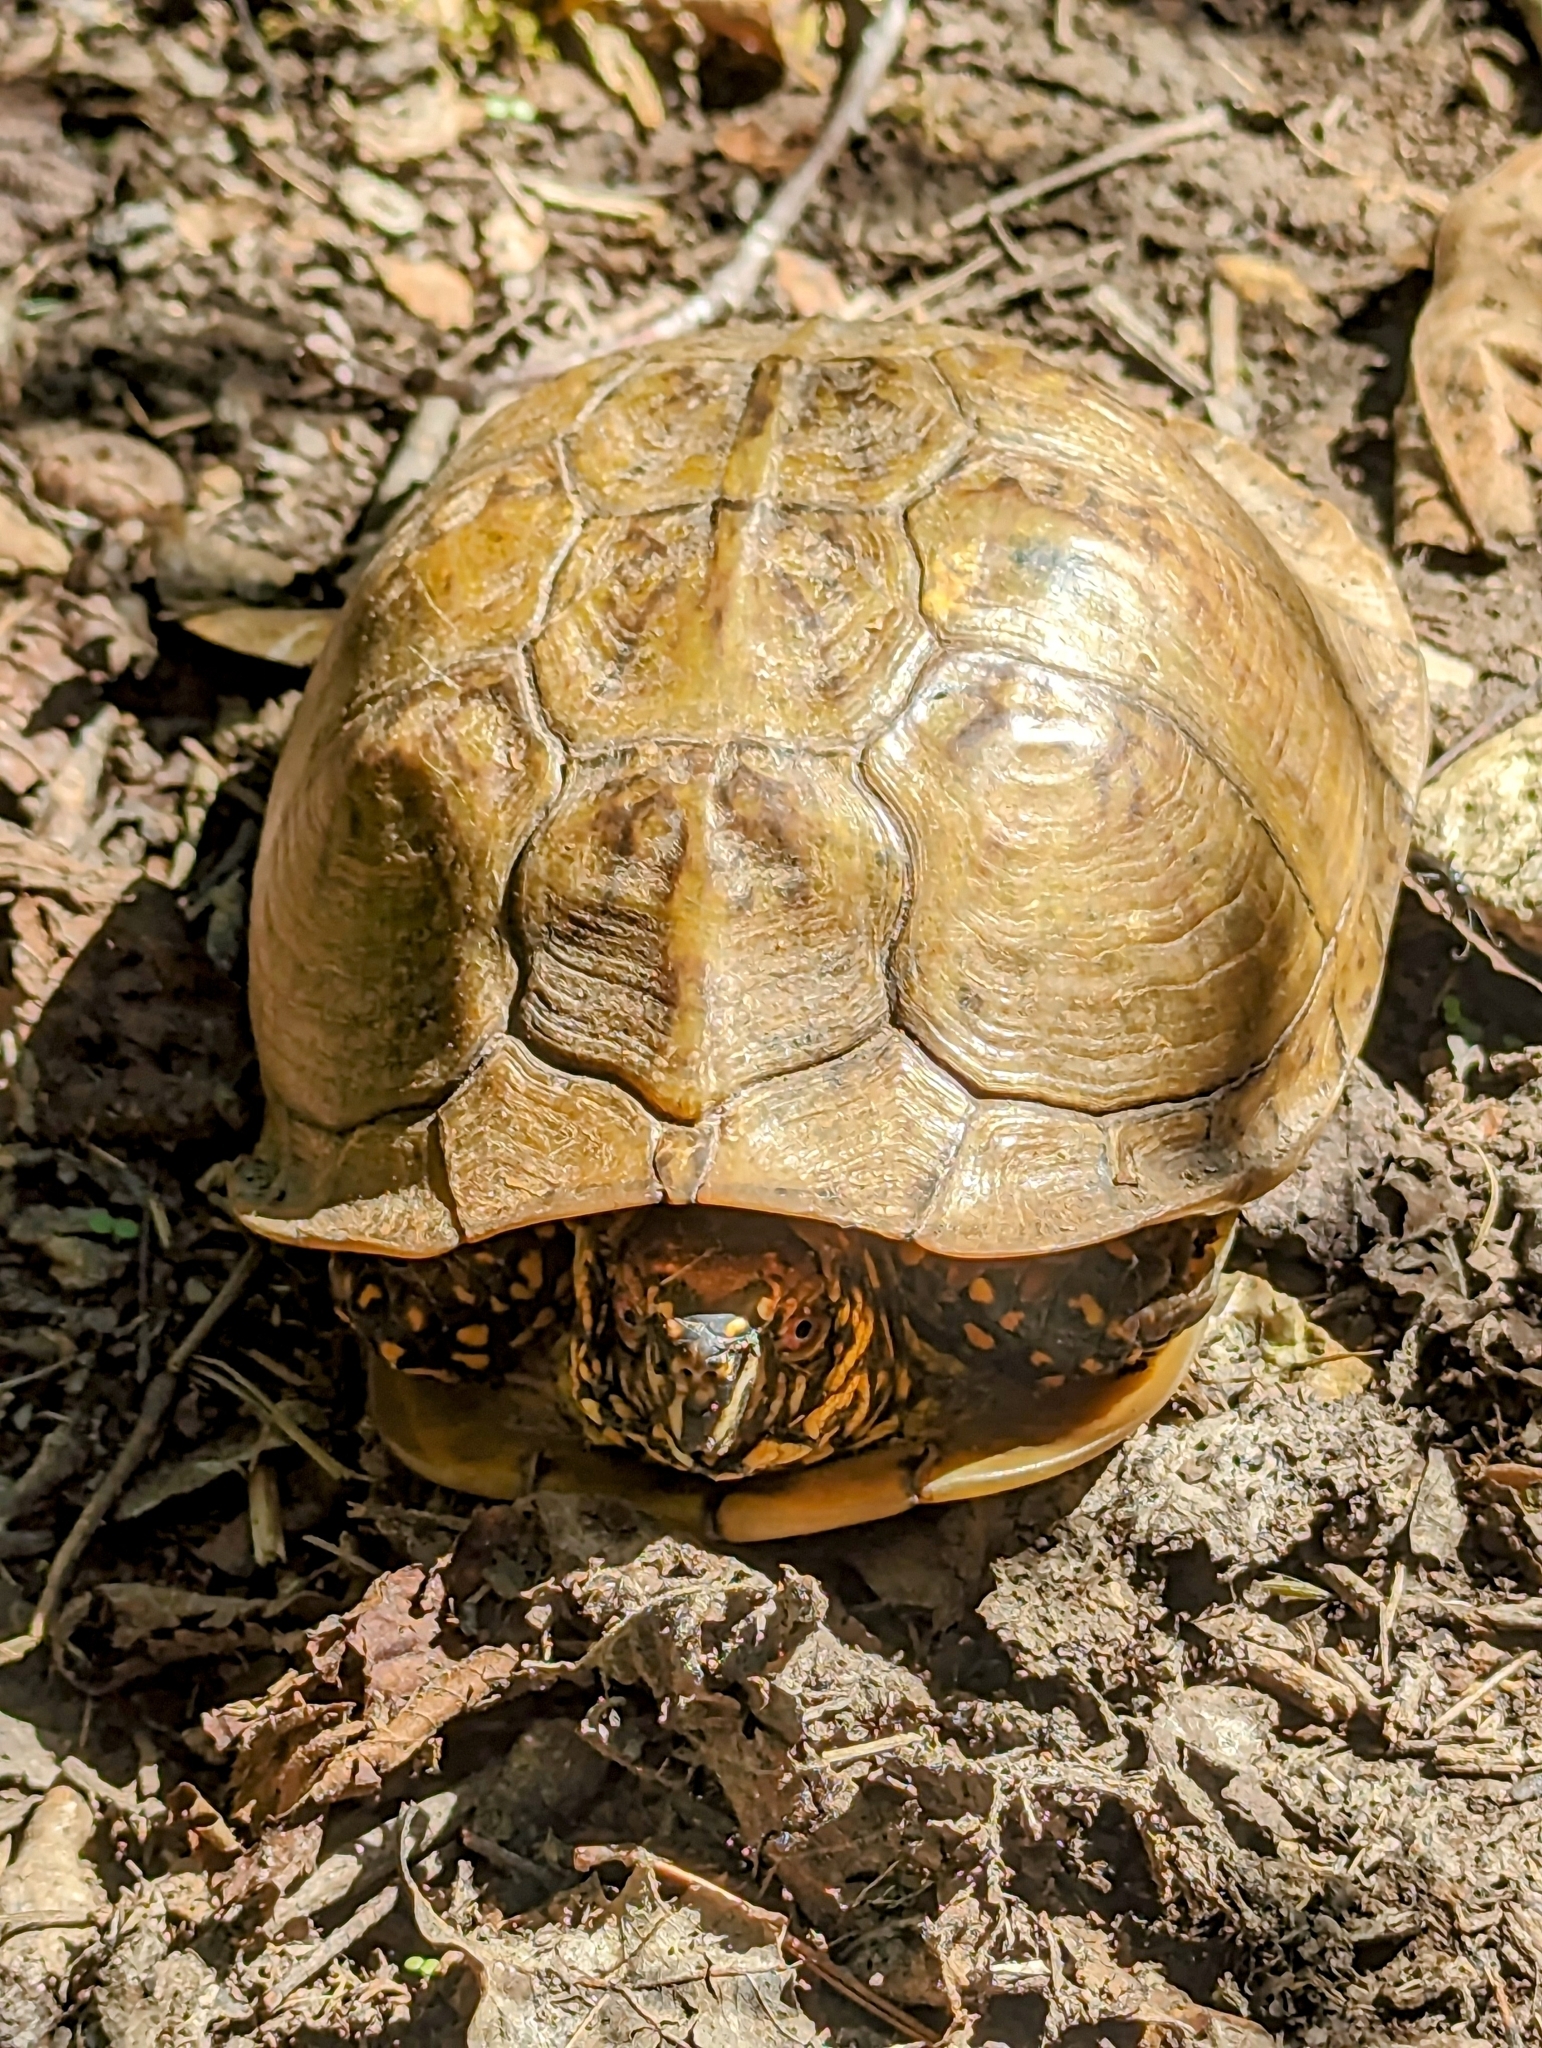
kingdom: Animalia
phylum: Chordata
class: Testudines
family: Emydidae
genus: Terrapene
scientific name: Terrapene carolina
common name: Common box turtle
